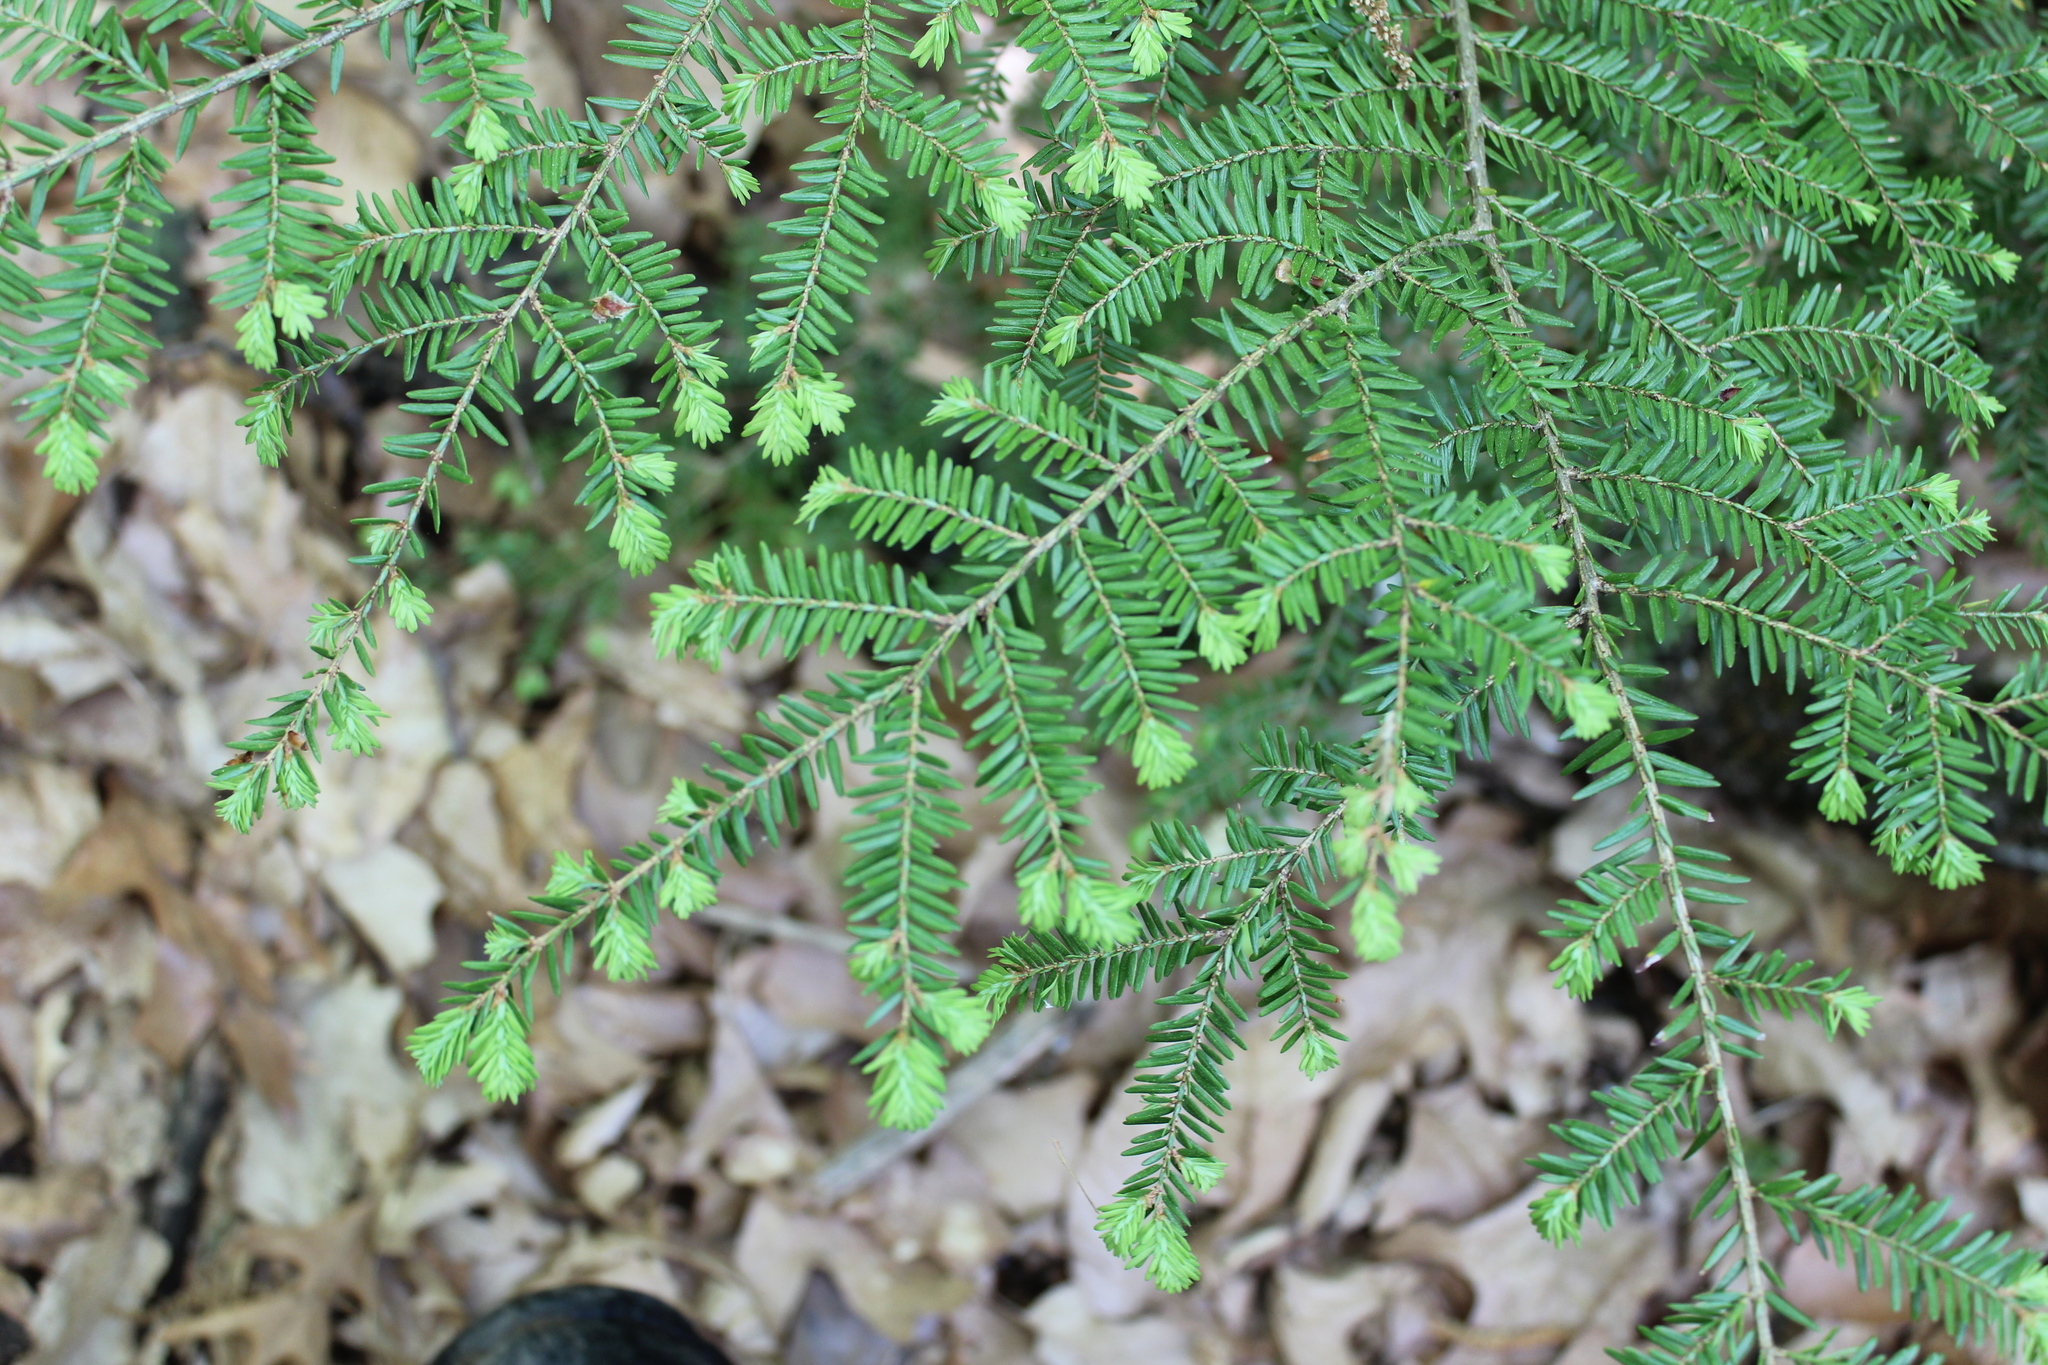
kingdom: Plantae
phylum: Tracheophyta
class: Pinopsida
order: Pinales
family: Pinaceae
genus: Tsuga
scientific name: Tsuga canadensis
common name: Eastern hemlock
